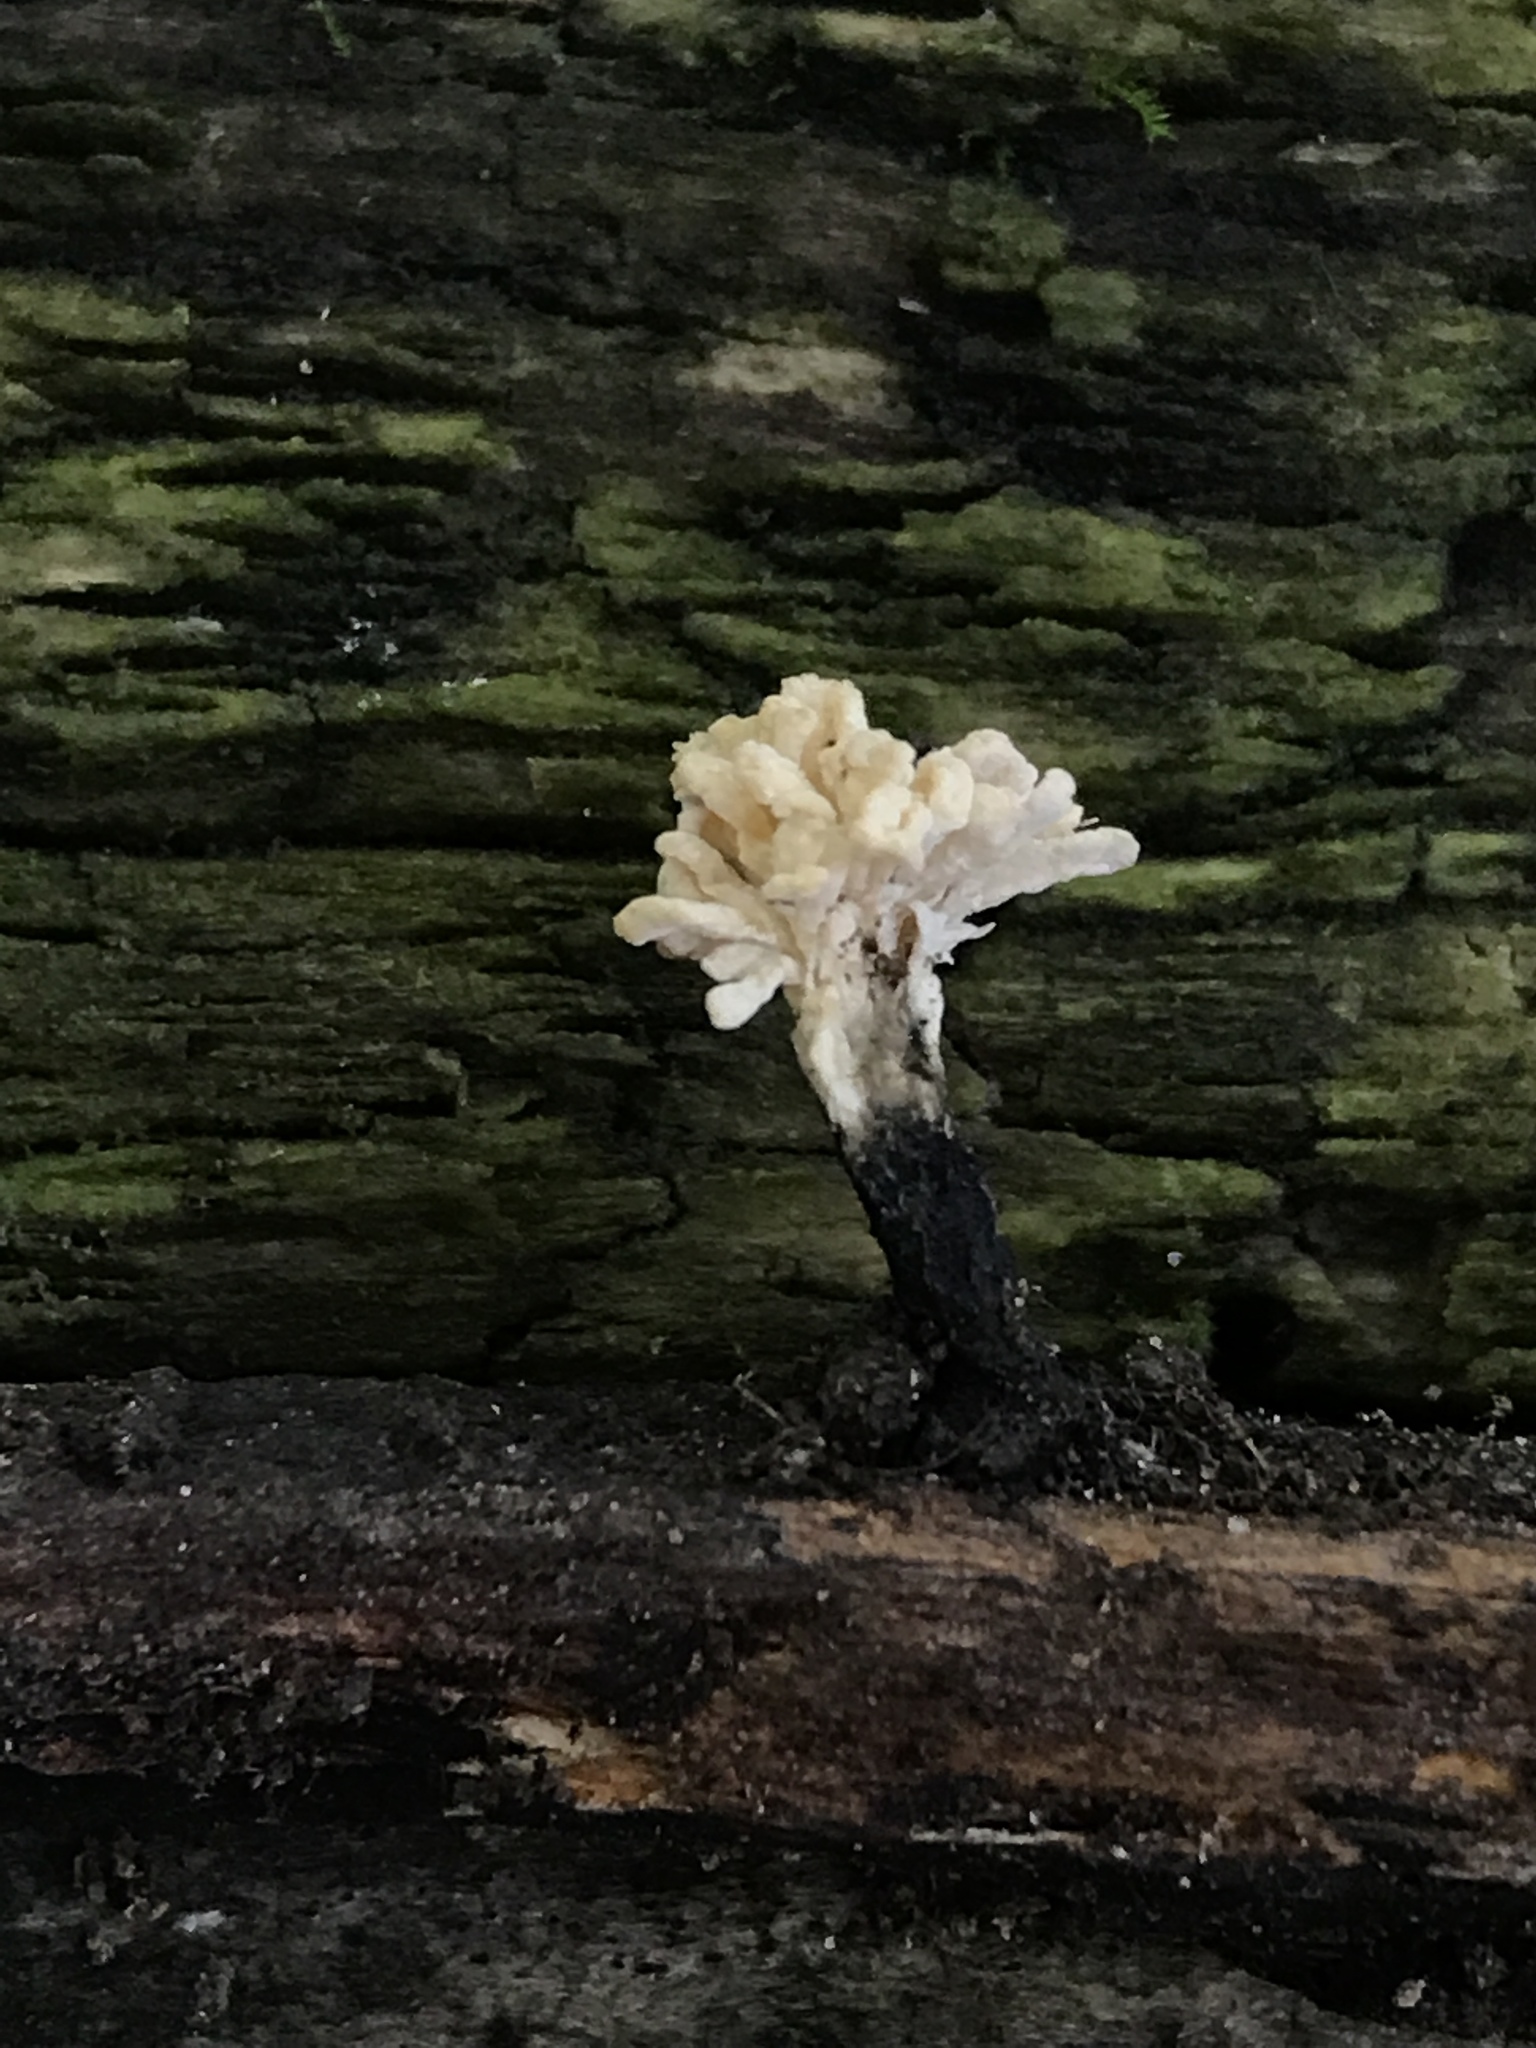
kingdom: Fungi
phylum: Ascomycota
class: Sordariomycetes
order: Xylariales
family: Xylariaceae
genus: Xylaria
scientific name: Xylaria cubensis
